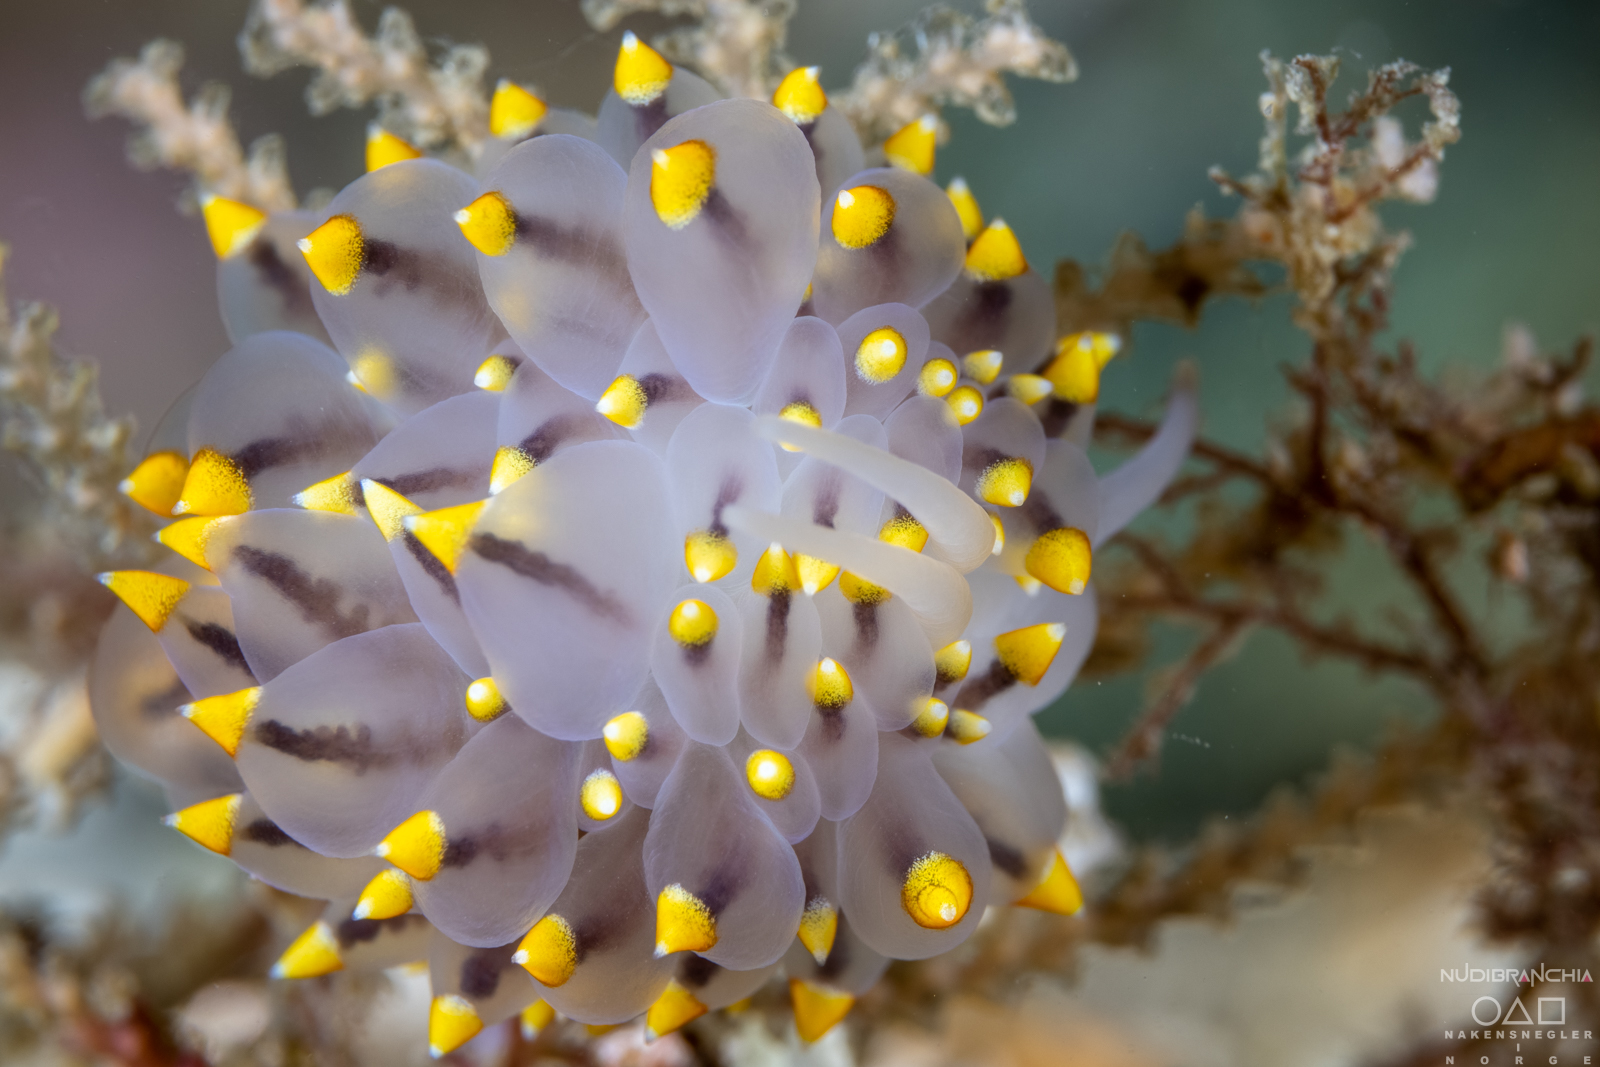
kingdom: Animalia
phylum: Mollusca
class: Gastropoda
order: Nudibranchia
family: Eubranchidae
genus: Eubranchus
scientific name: Eubranchus tricolor
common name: Painted balloon aeolis
